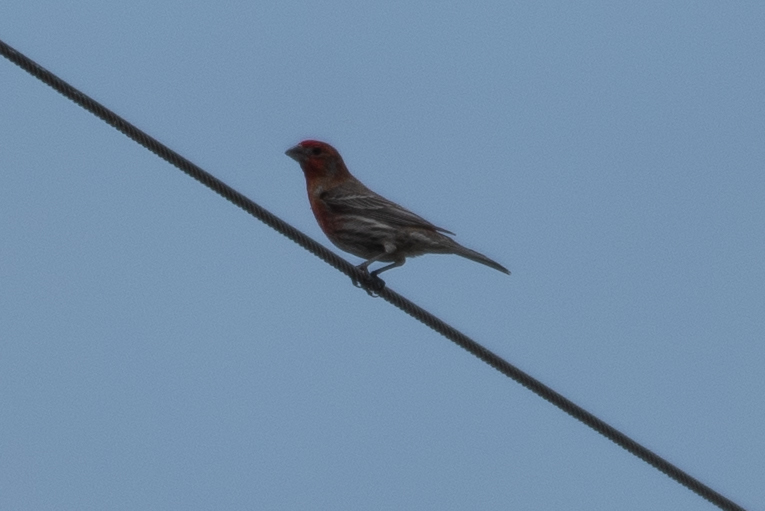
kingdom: Animalia
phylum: Chordata
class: Aves
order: Passeriformes
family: Fringillidae
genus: Haemorhous
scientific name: Haemorhous mexicanus
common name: House finch
